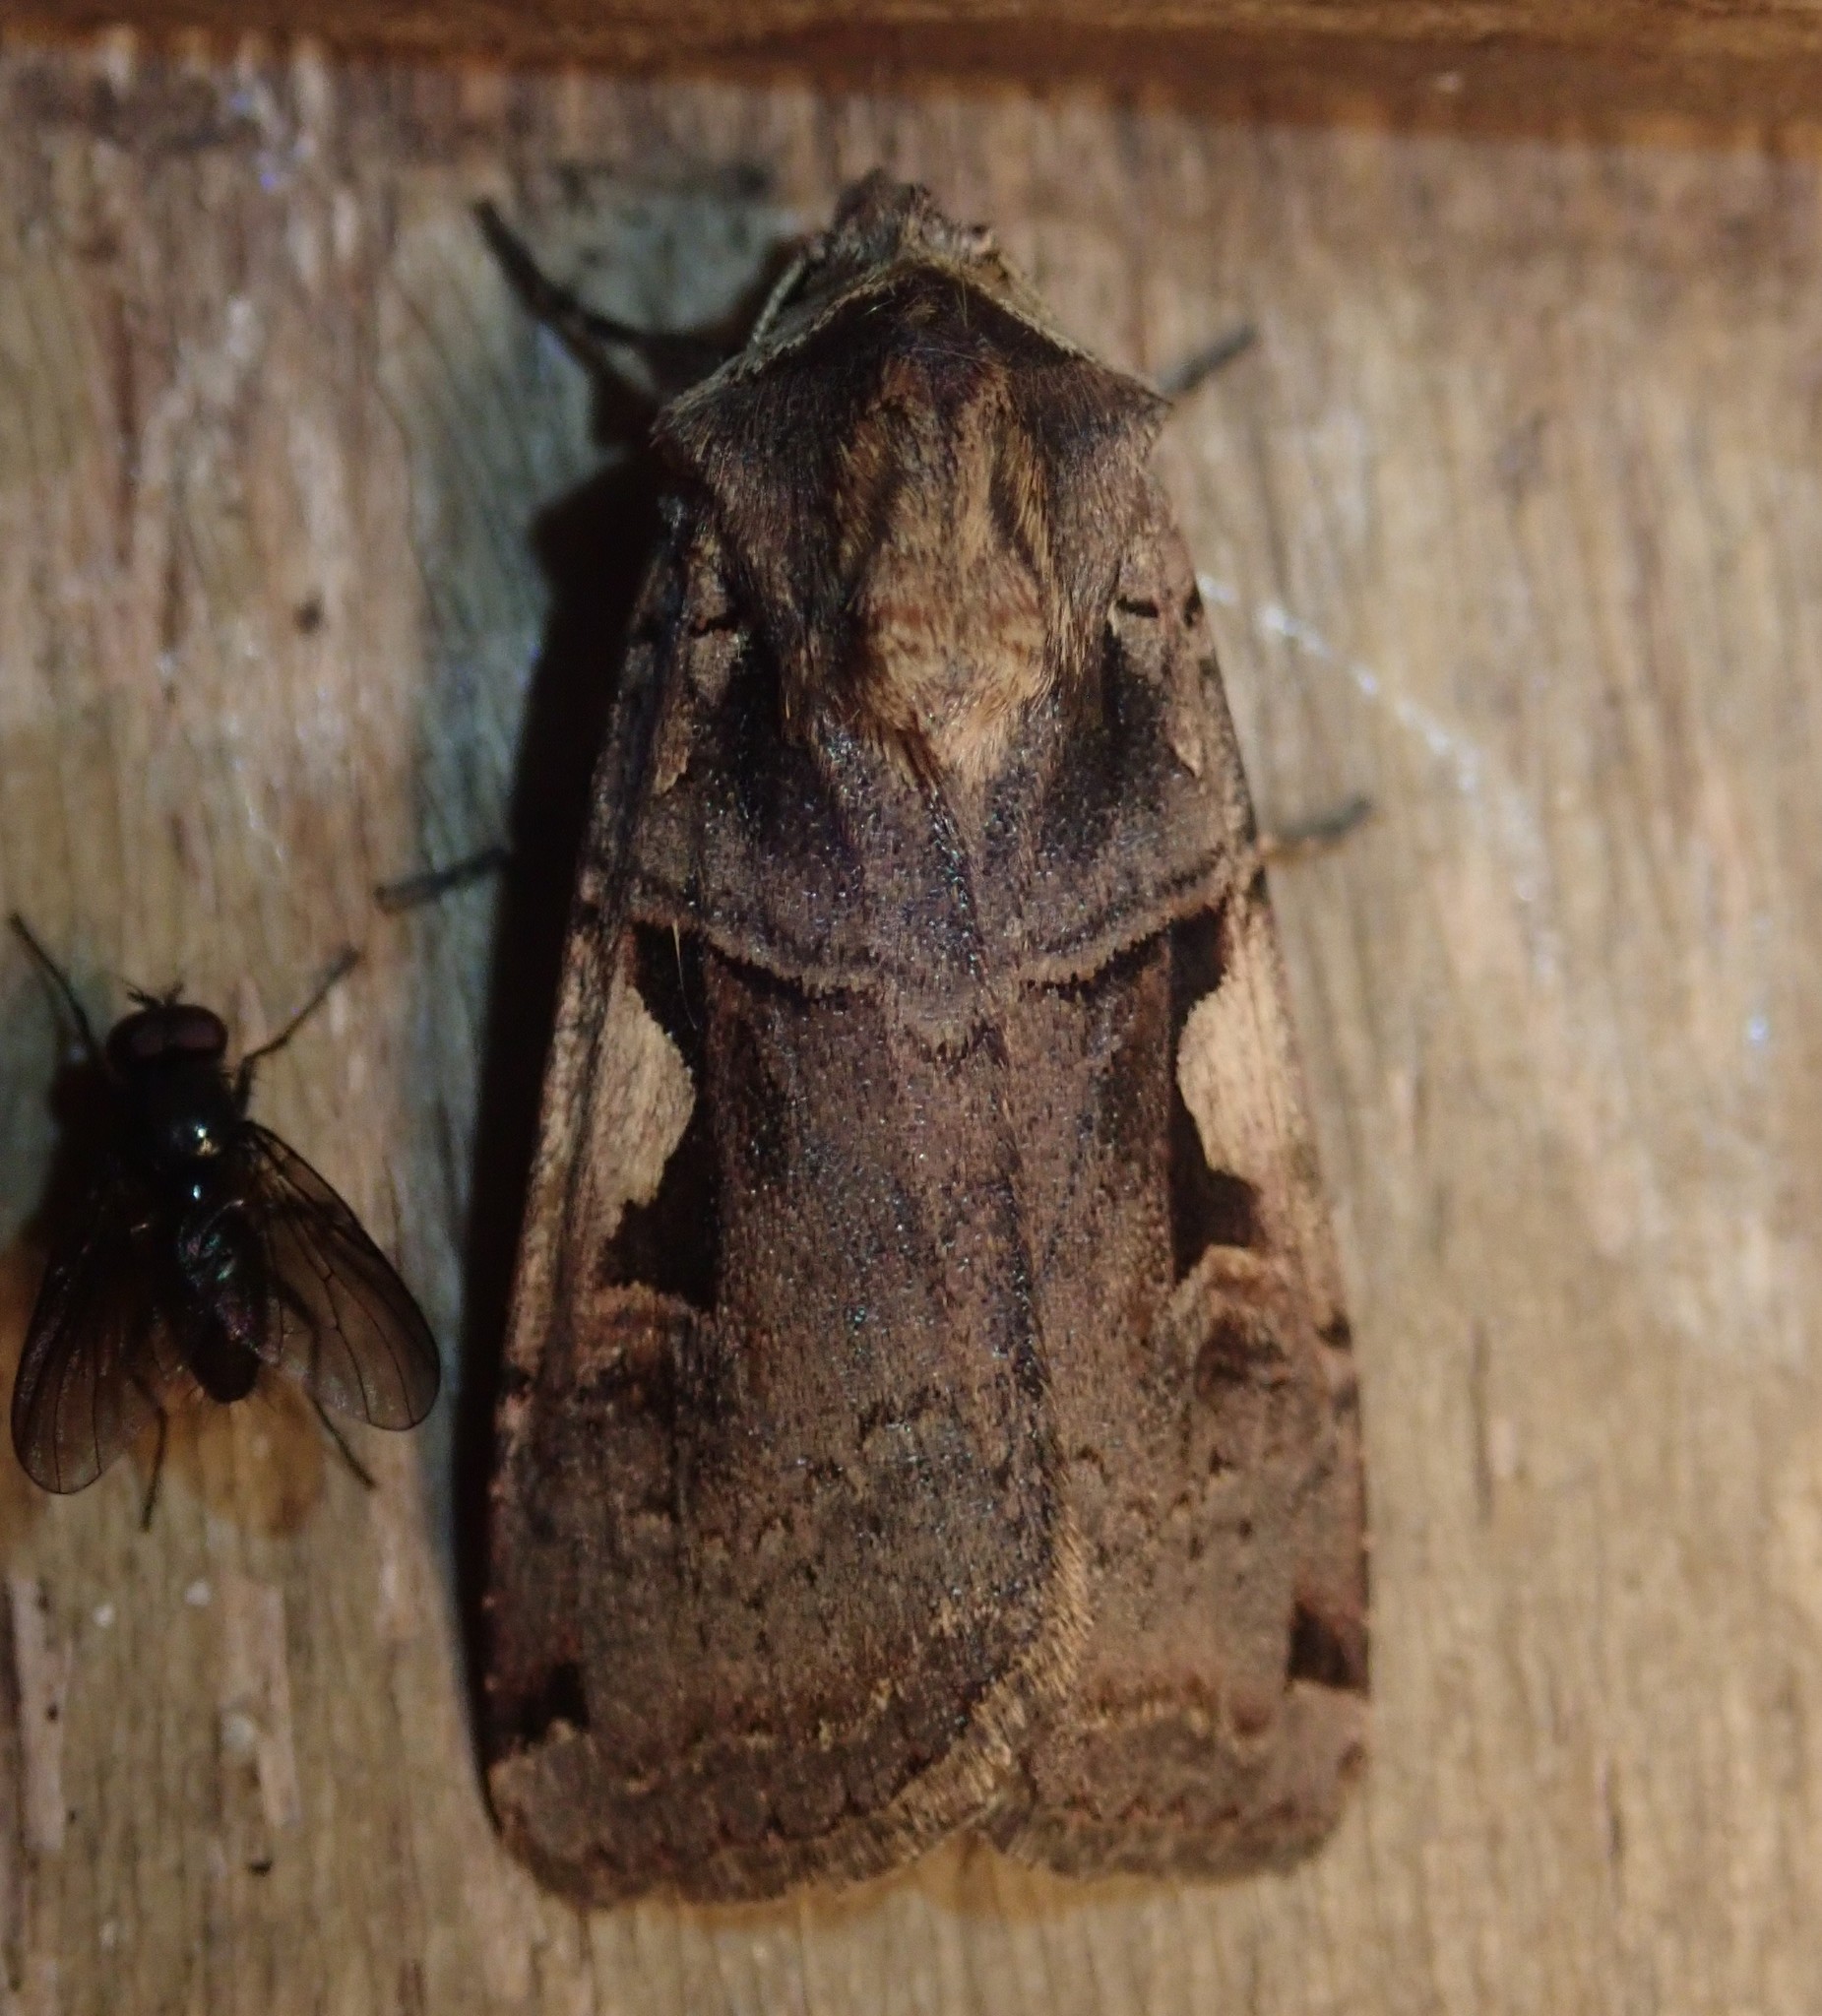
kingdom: Animalia
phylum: Arthropoda
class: Insecta
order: Lepidoptera
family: Noctuidae
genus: Xestia
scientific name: Xestia c-nigrum
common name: Setaceous hebrew character
